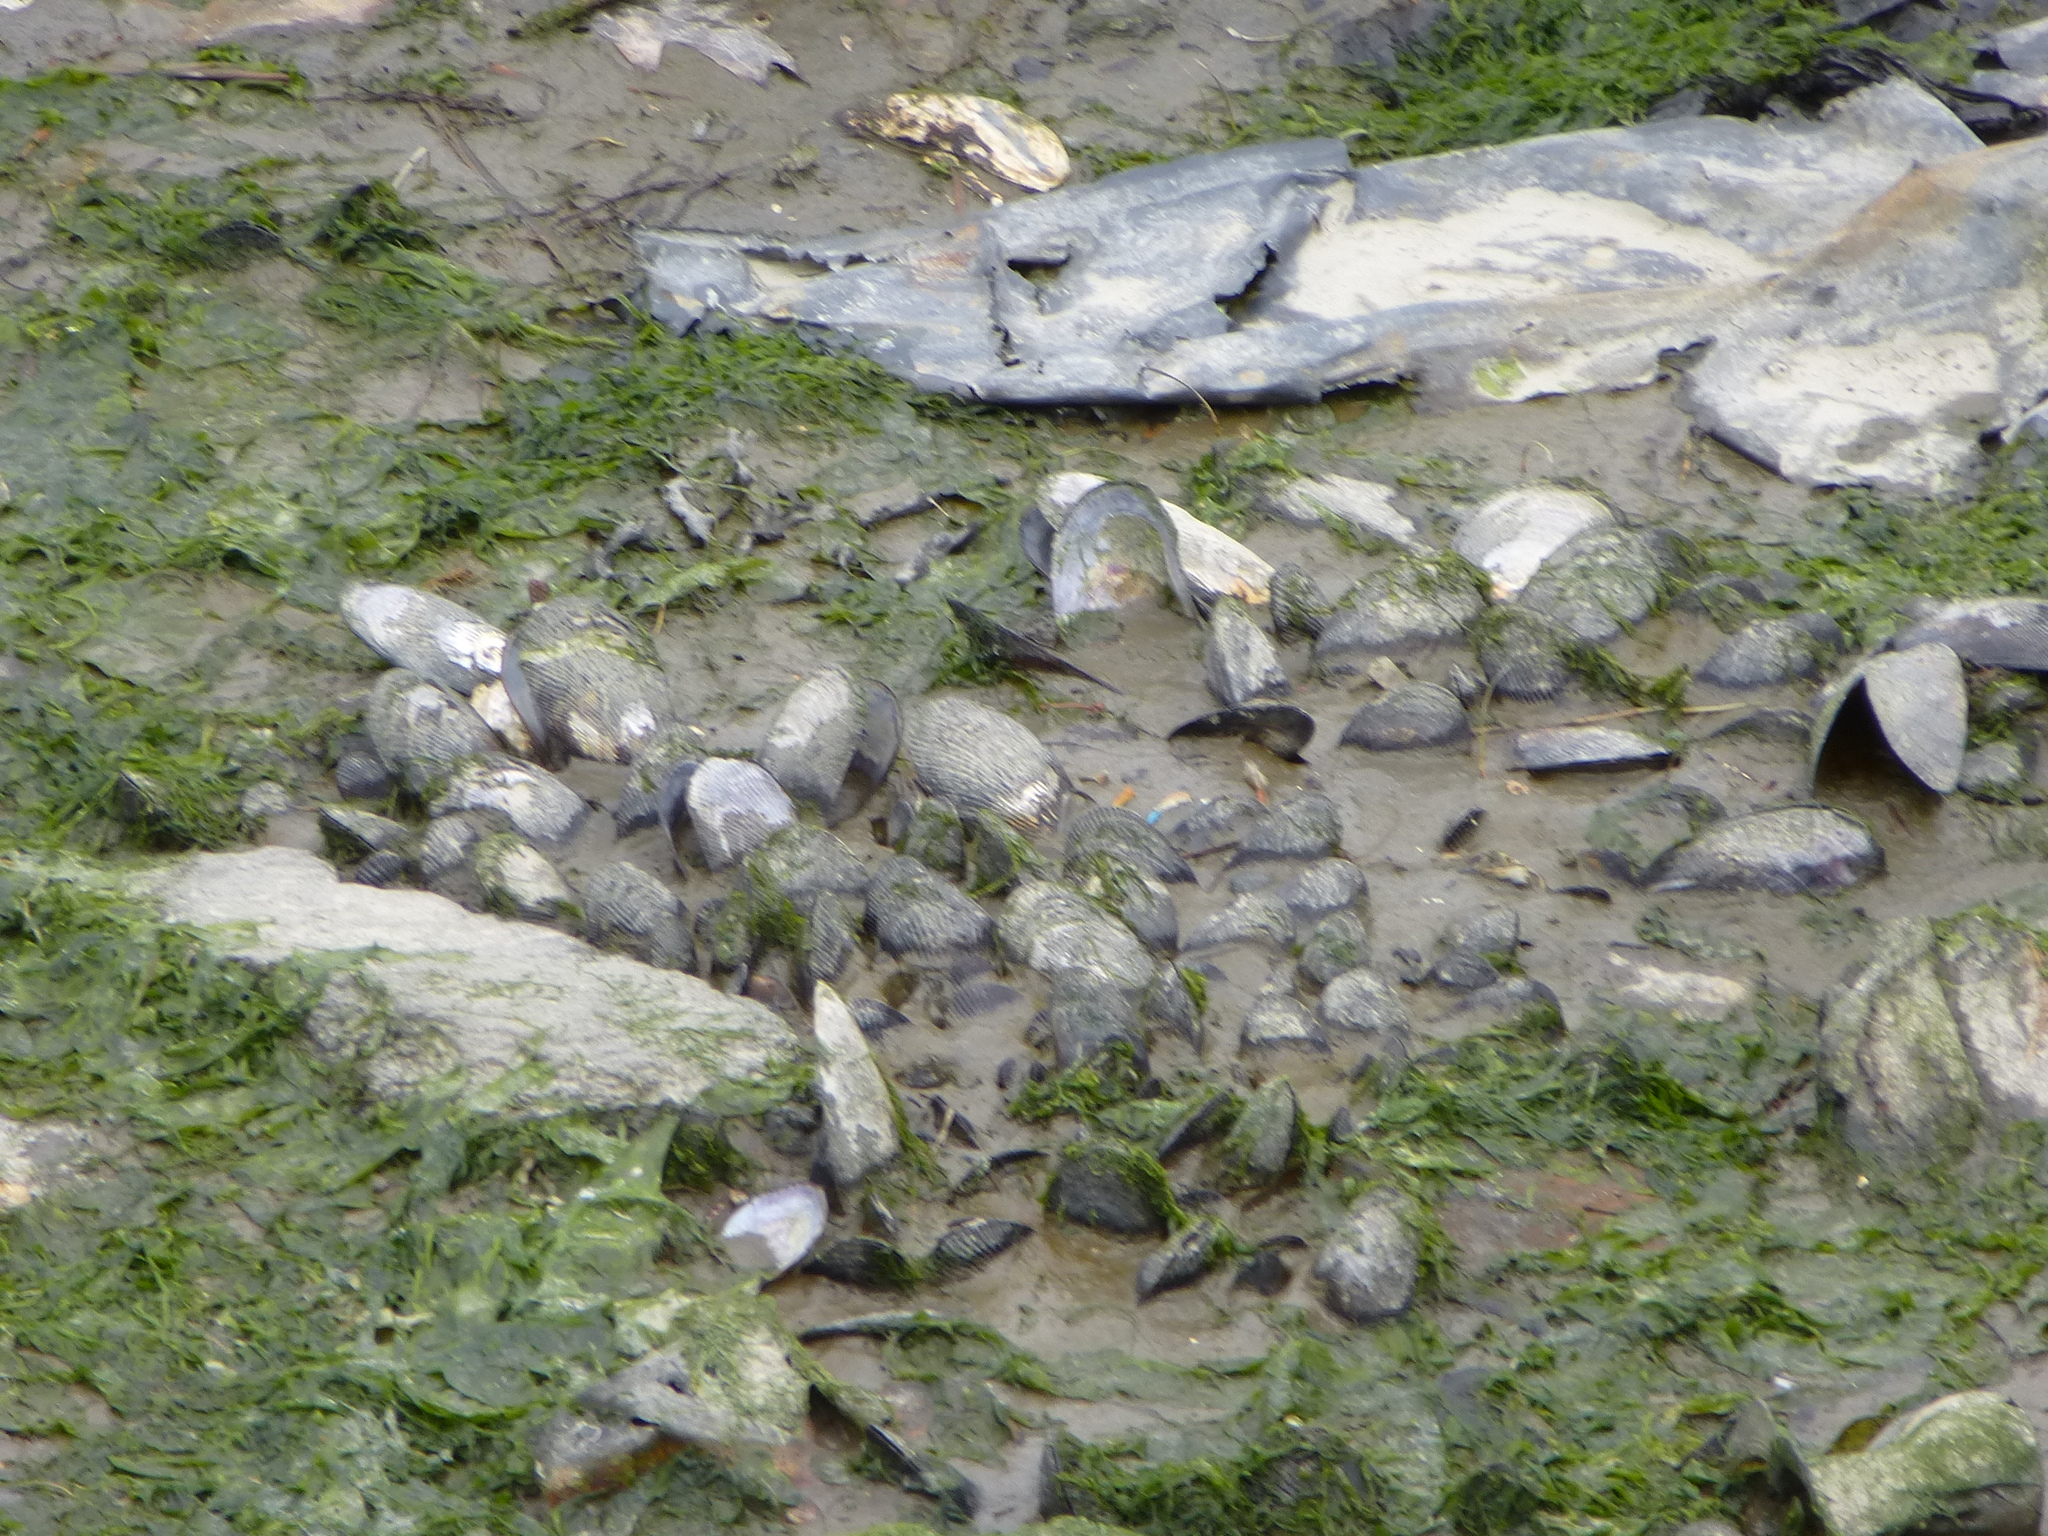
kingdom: Animalia
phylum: Mollusca
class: Bivalvia
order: Mytilida
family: Mytilidae
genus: Geukensia
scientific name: Geukensia demissa
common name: Ribbed mussel
